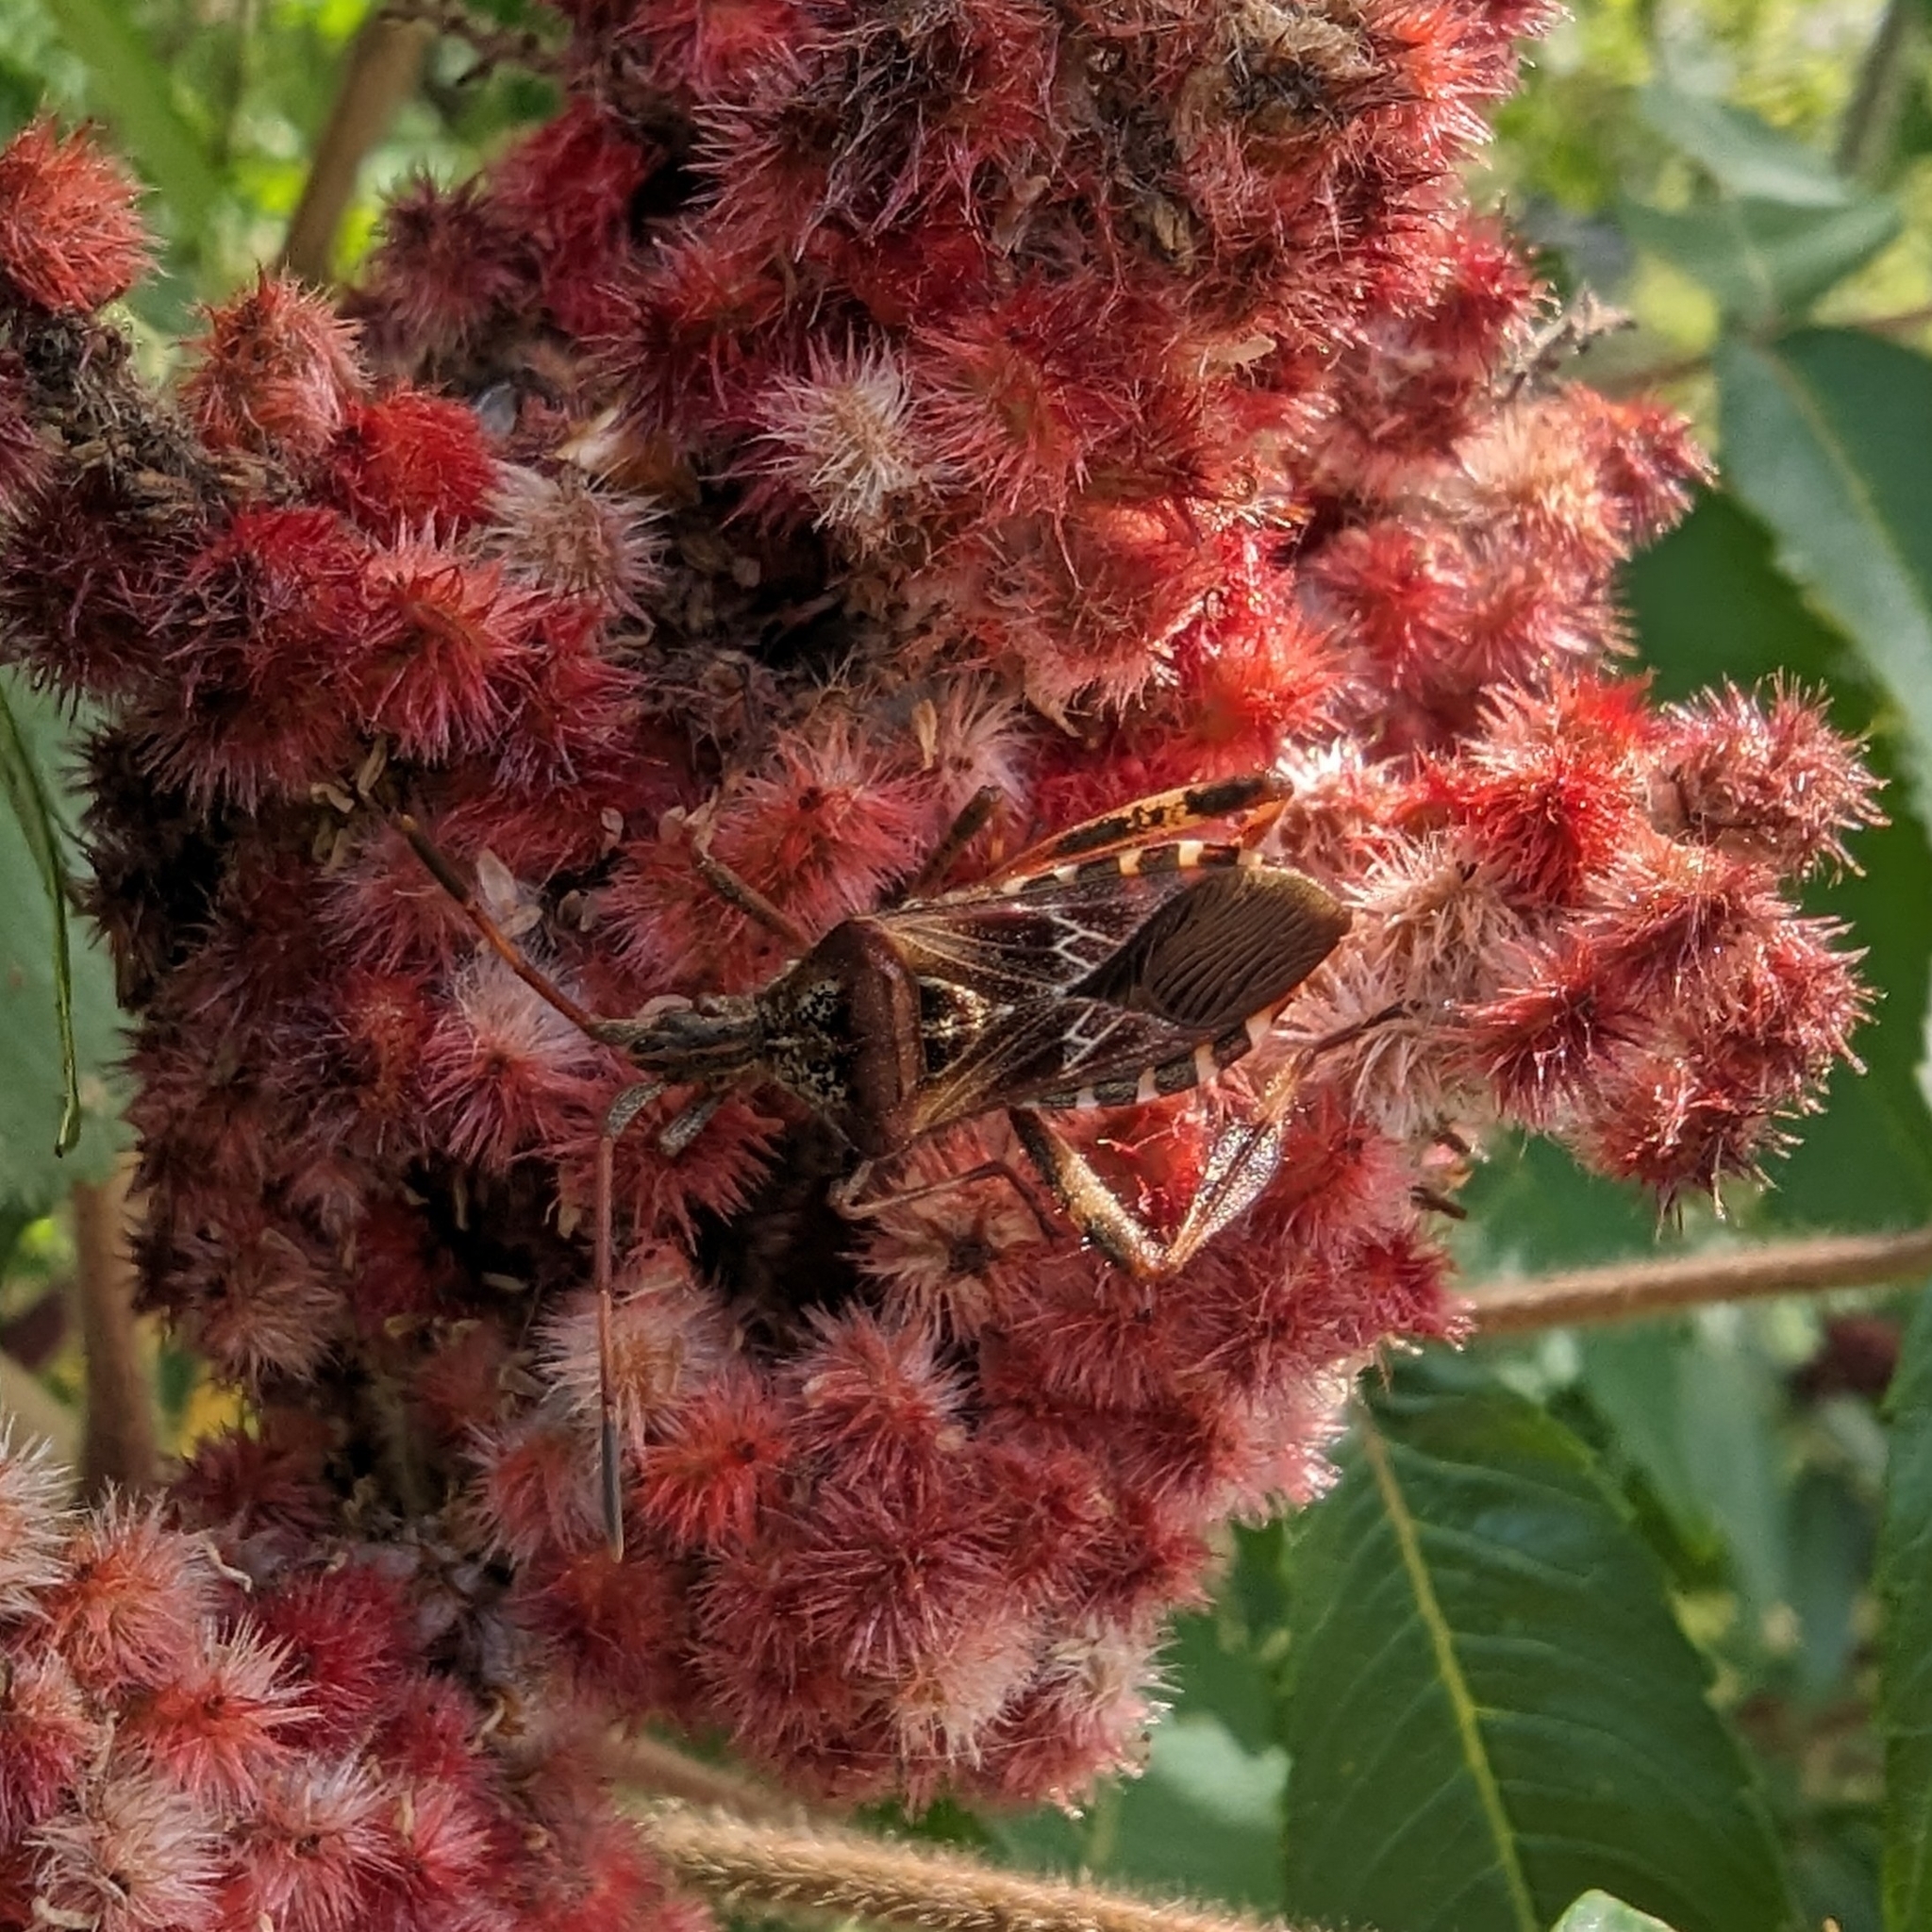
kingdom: Animalia
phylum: Arthropoda
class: Insecta
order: Hemiptera
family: Coreidae
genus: Leptoglossus
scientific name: Leptoglossus occidentalis
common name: Western conifer-seed bug
